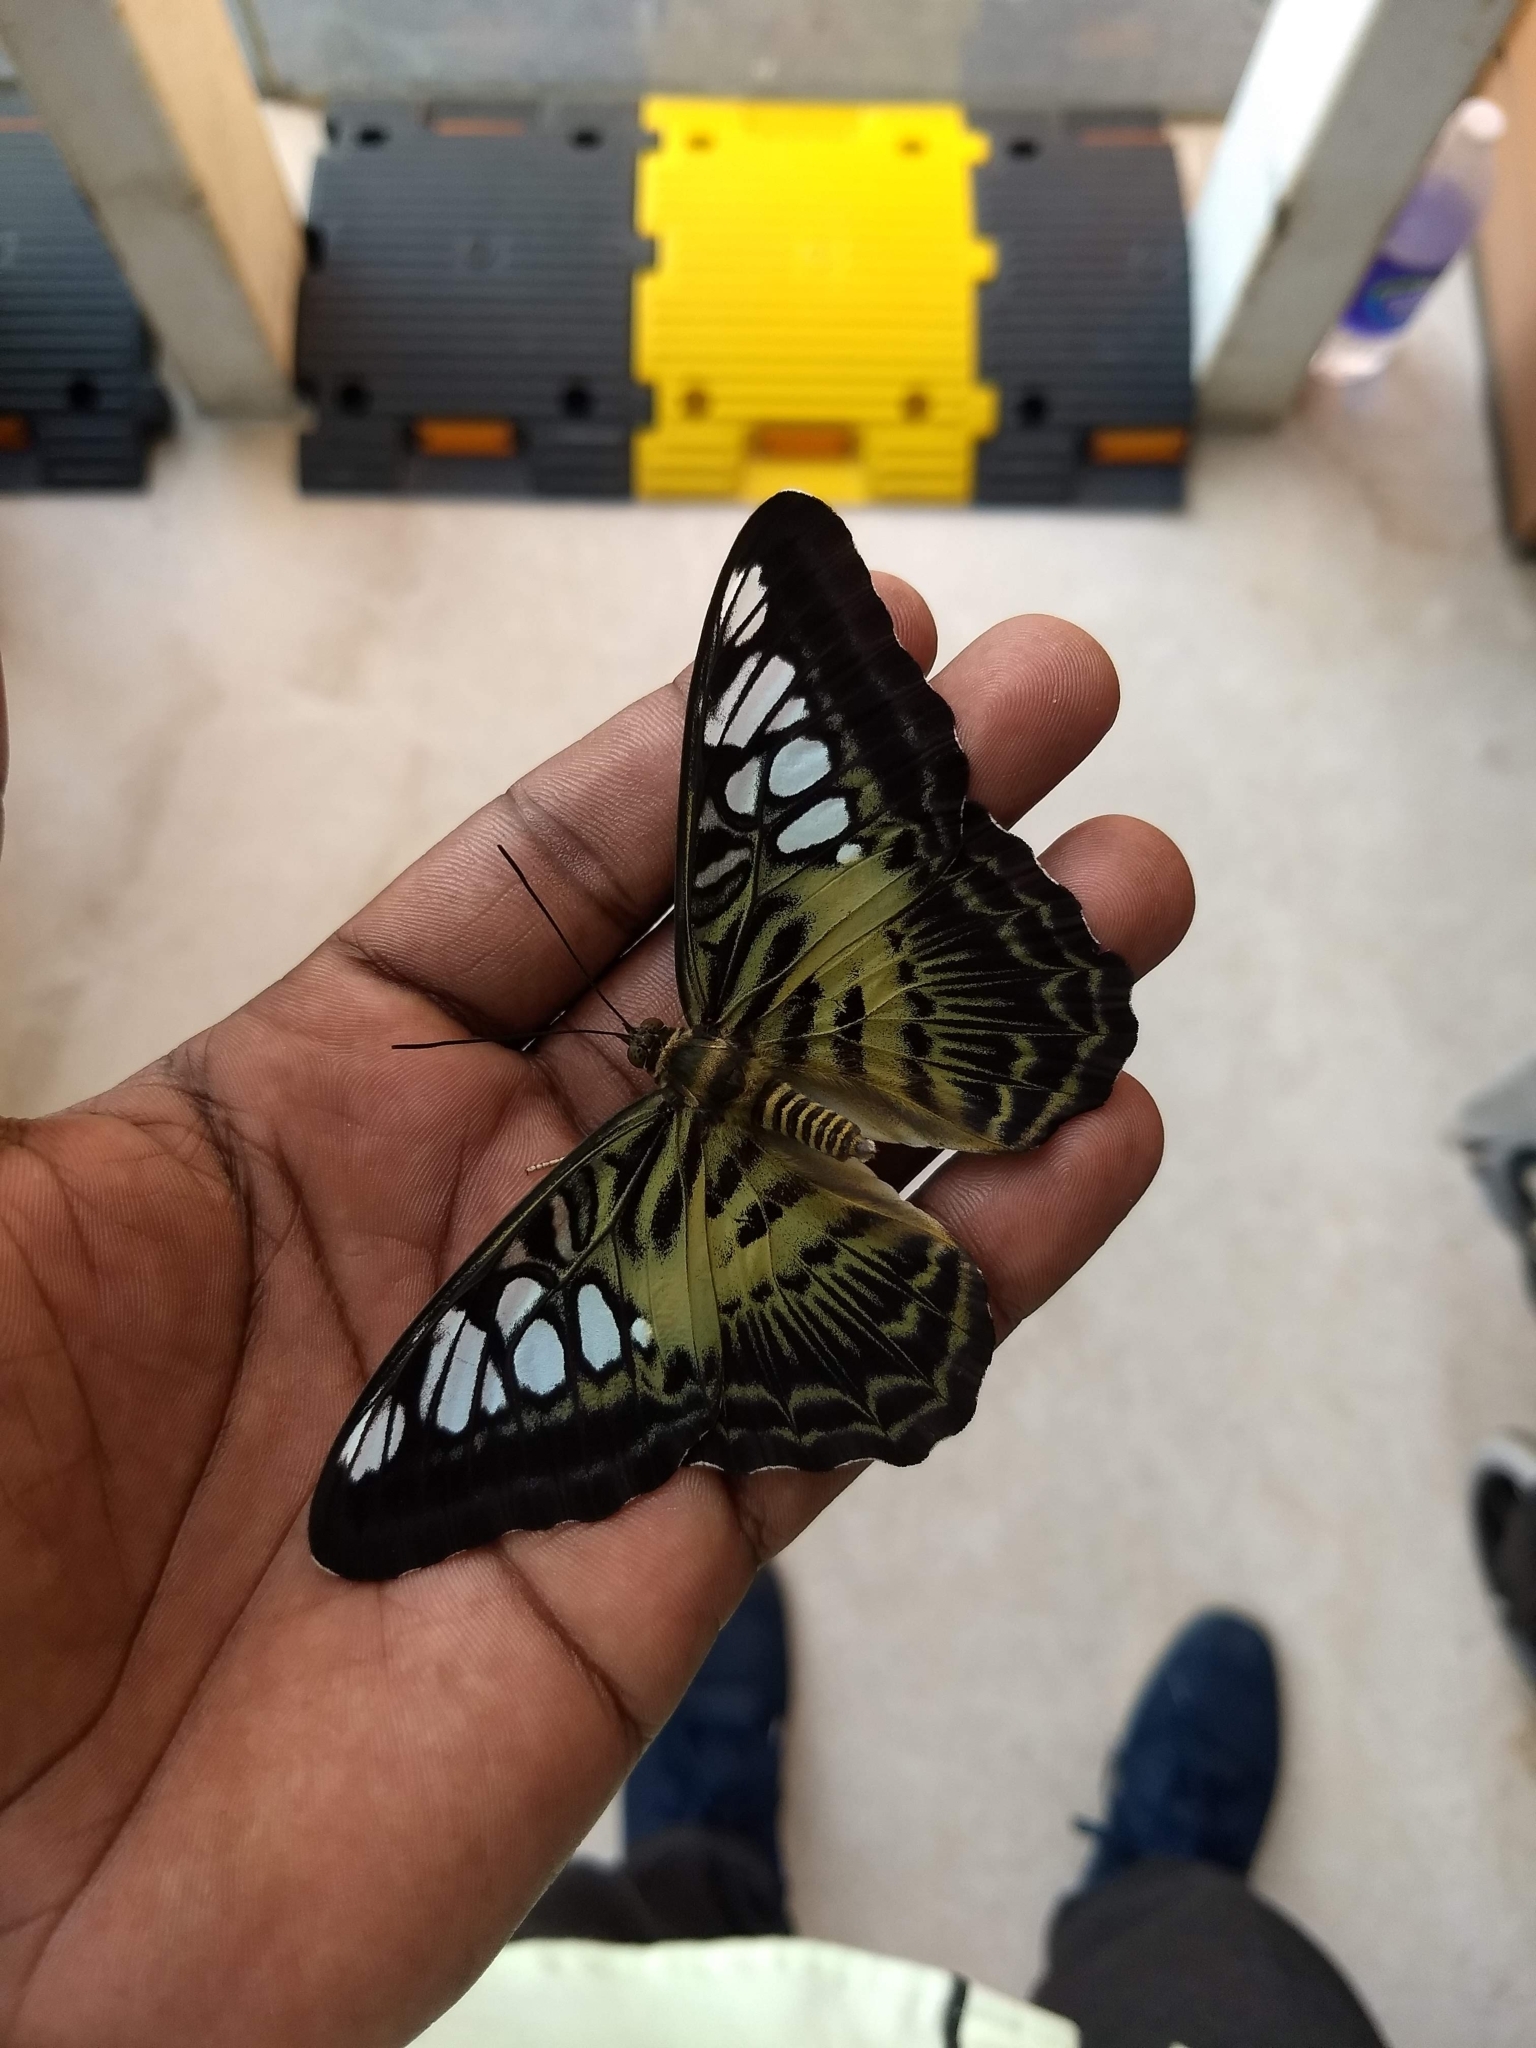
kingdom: Animalia
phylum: Arthropoda
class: Insecta
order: Lepidoptera
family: Nymphalidae
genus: Kallima
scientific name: Kallima sylvia
